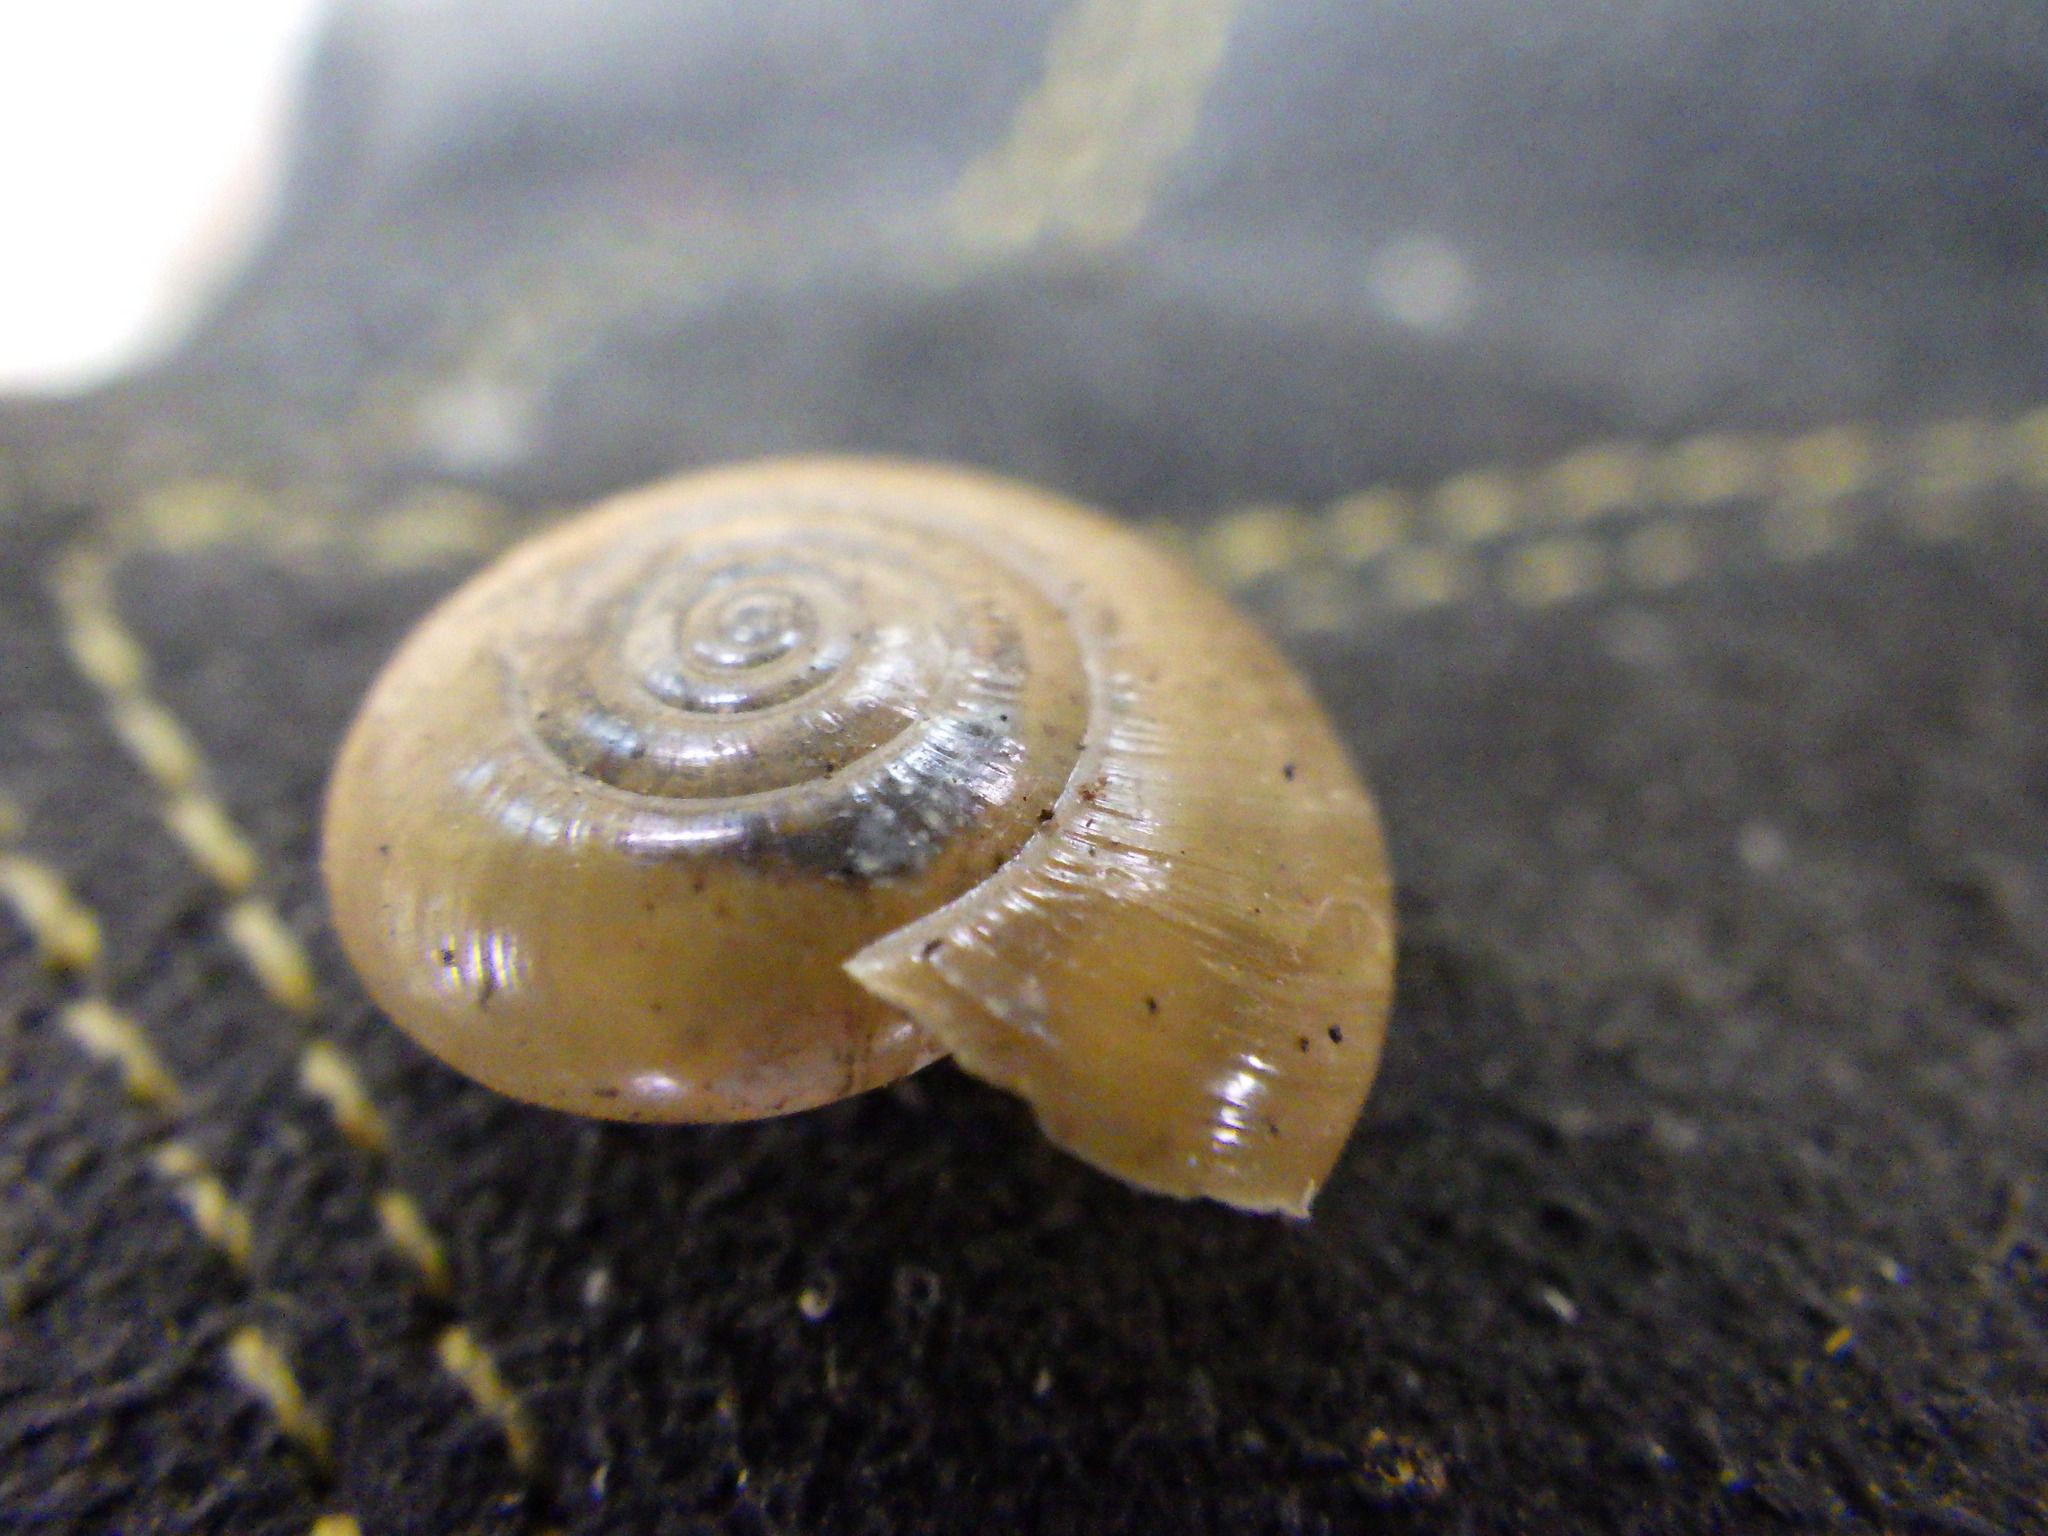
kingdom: Animalia
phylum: Mollusca
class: Gastropoda
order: Stylommatophora
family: Oxychilidae
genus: Oxychilus
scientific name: Oxychilus
